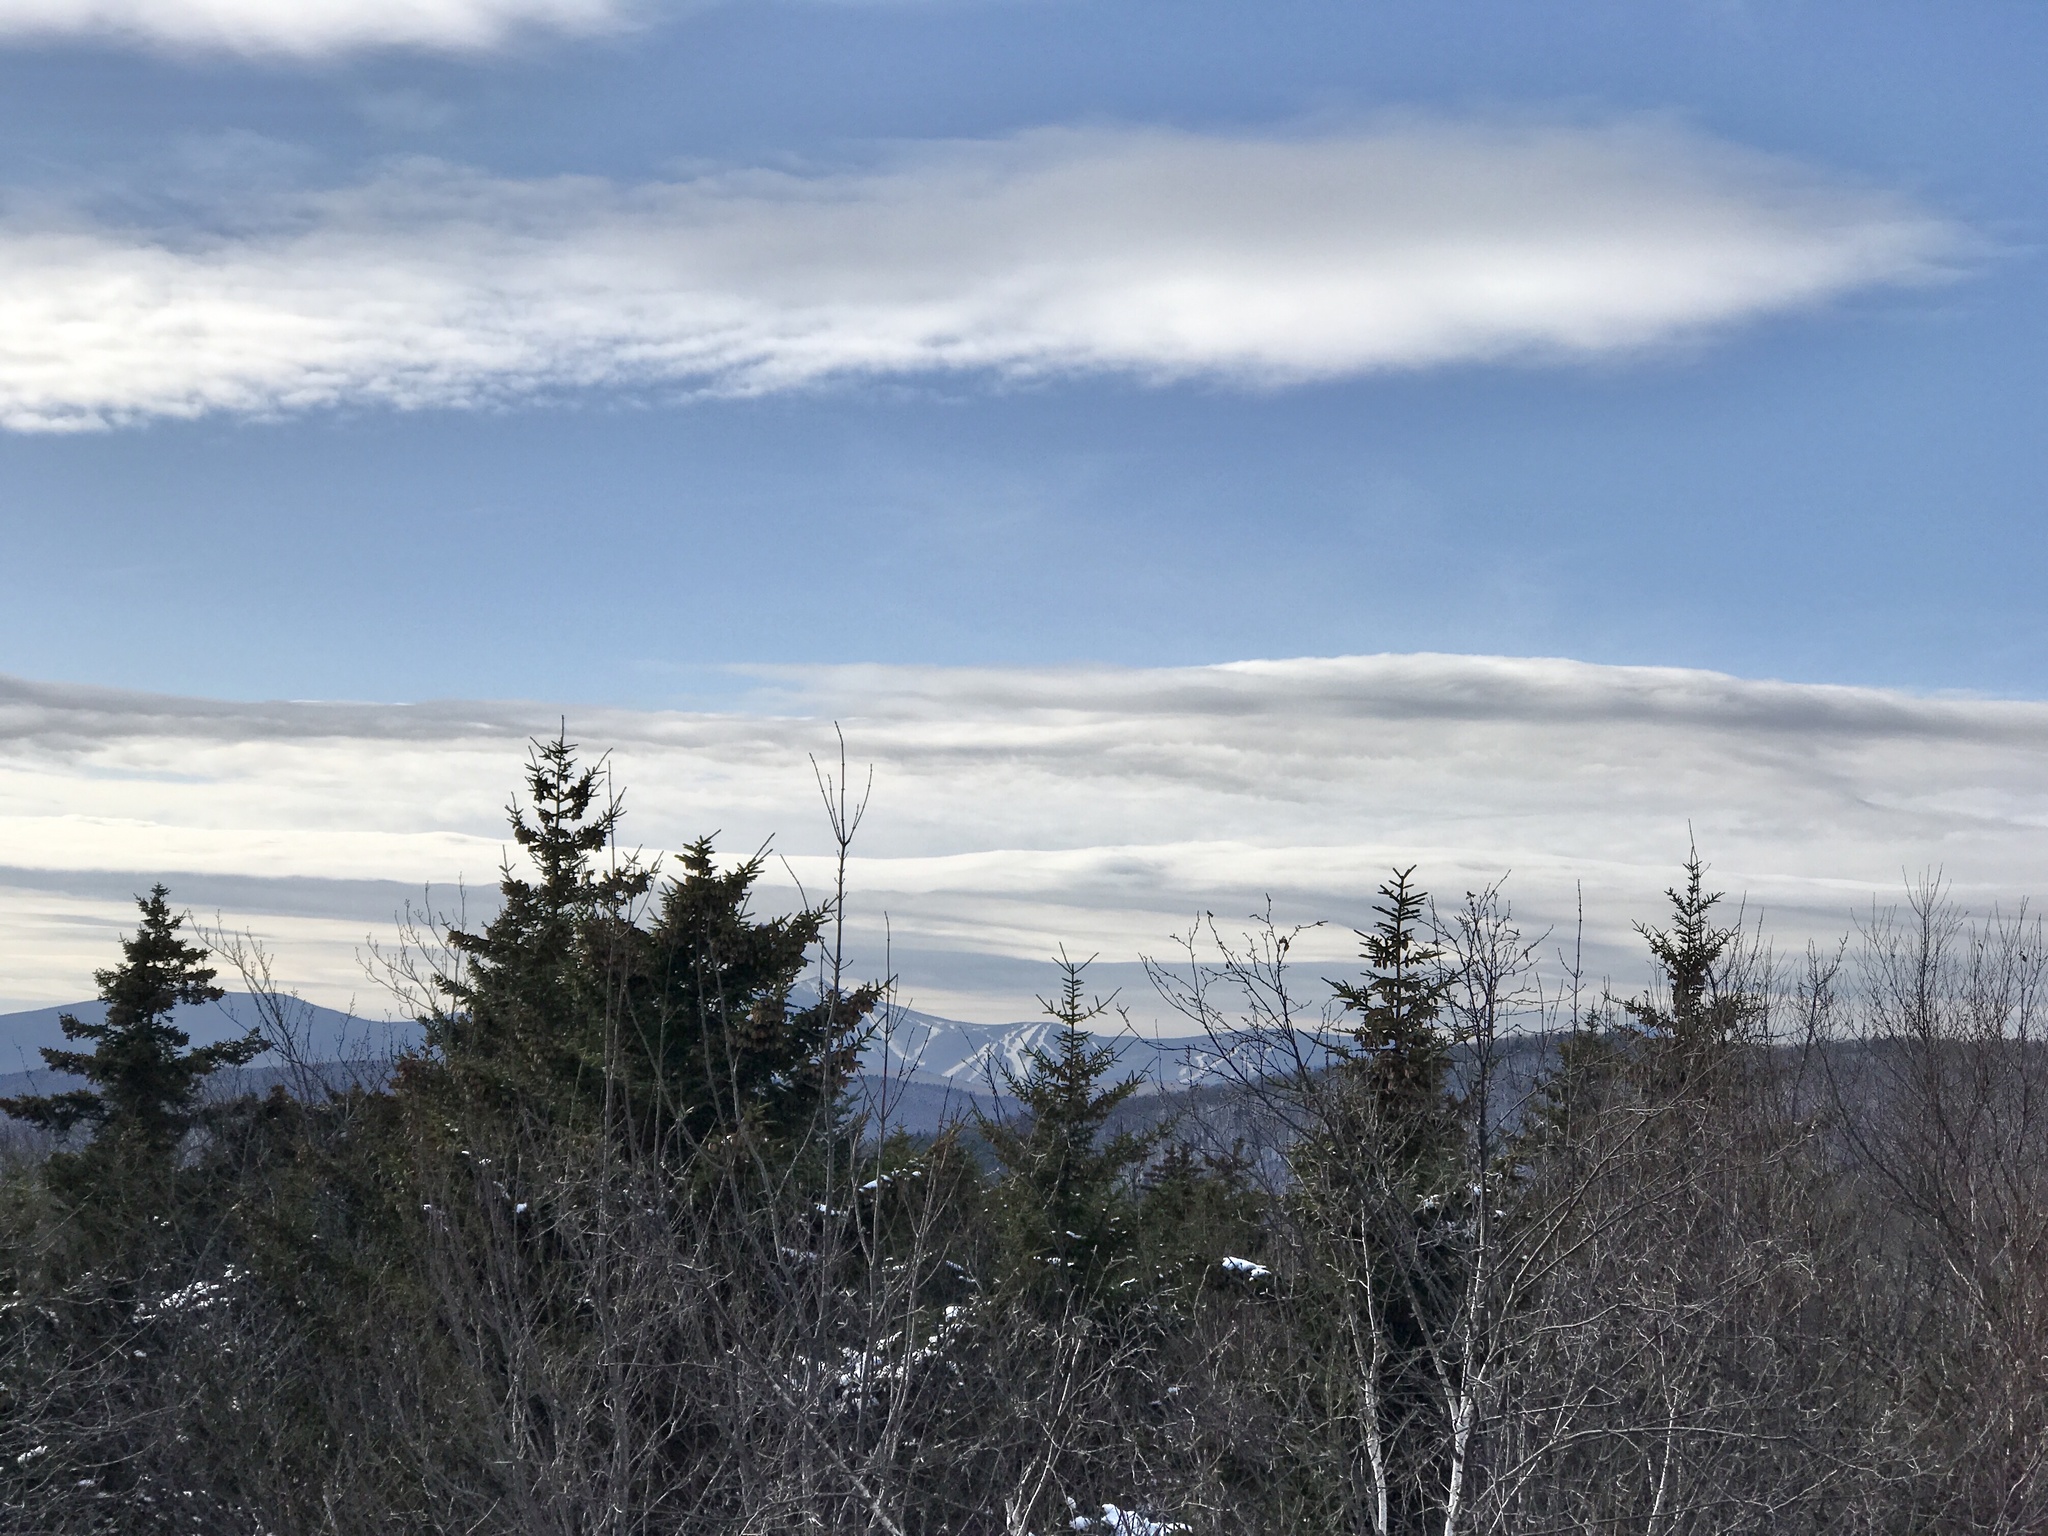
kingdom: Plantae
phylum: Tracheophyta
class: Pinopsida
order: Pinales
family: Pinaceae
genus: Picea
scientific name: Picea rubens
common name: Red spruce
